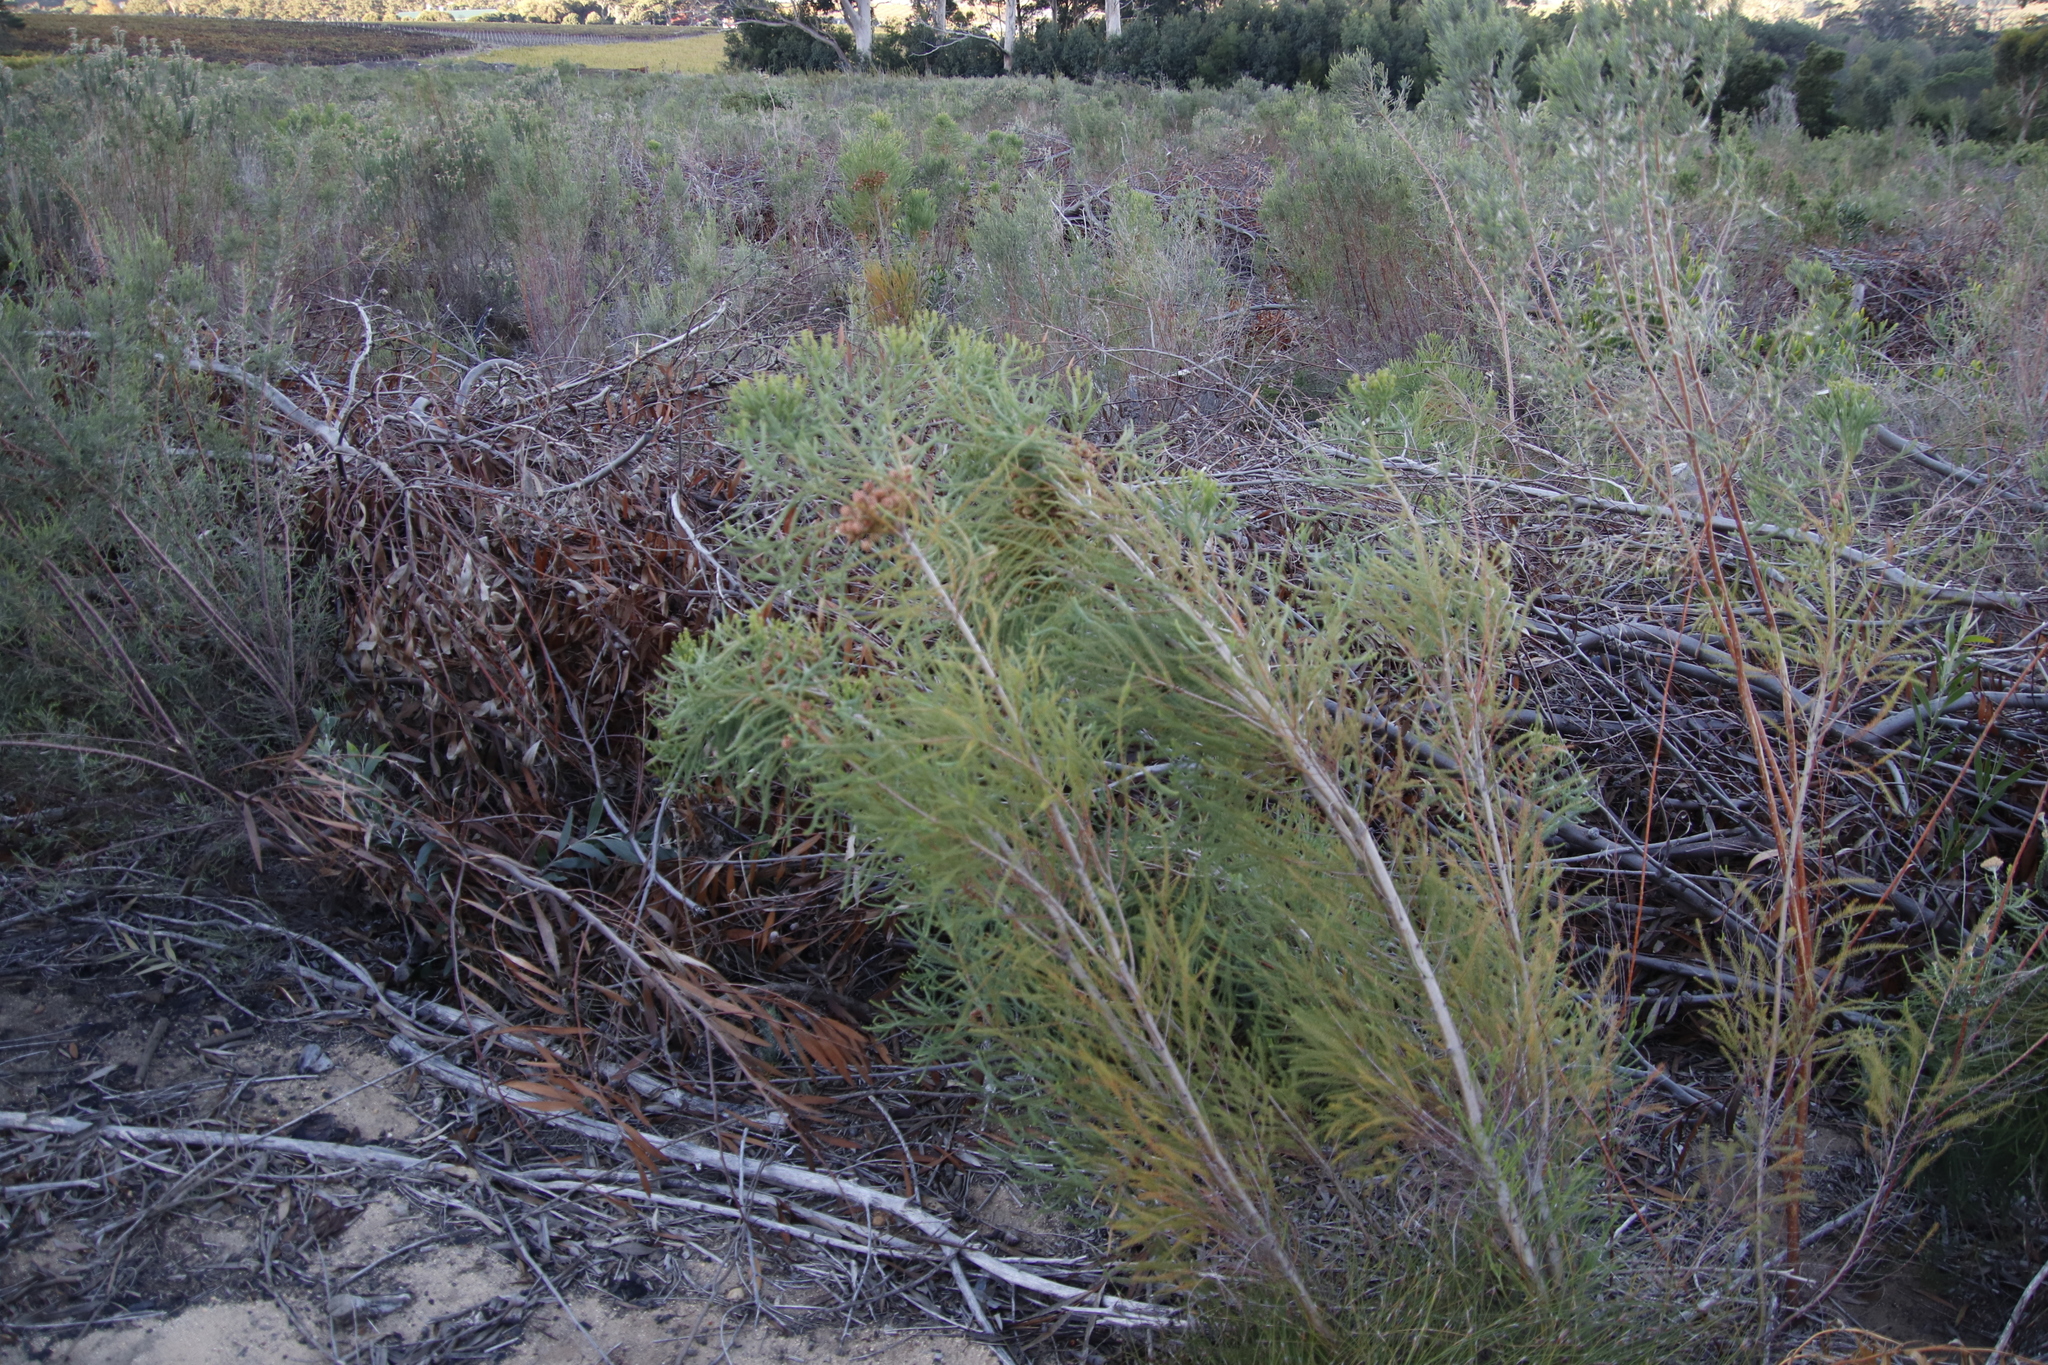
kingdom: Plantae
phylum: Tracheophyta
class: Magnoliopsida
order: Bruniales
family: Bruniaceae
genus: Berzelia
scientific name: Berzelia lanuginosa
